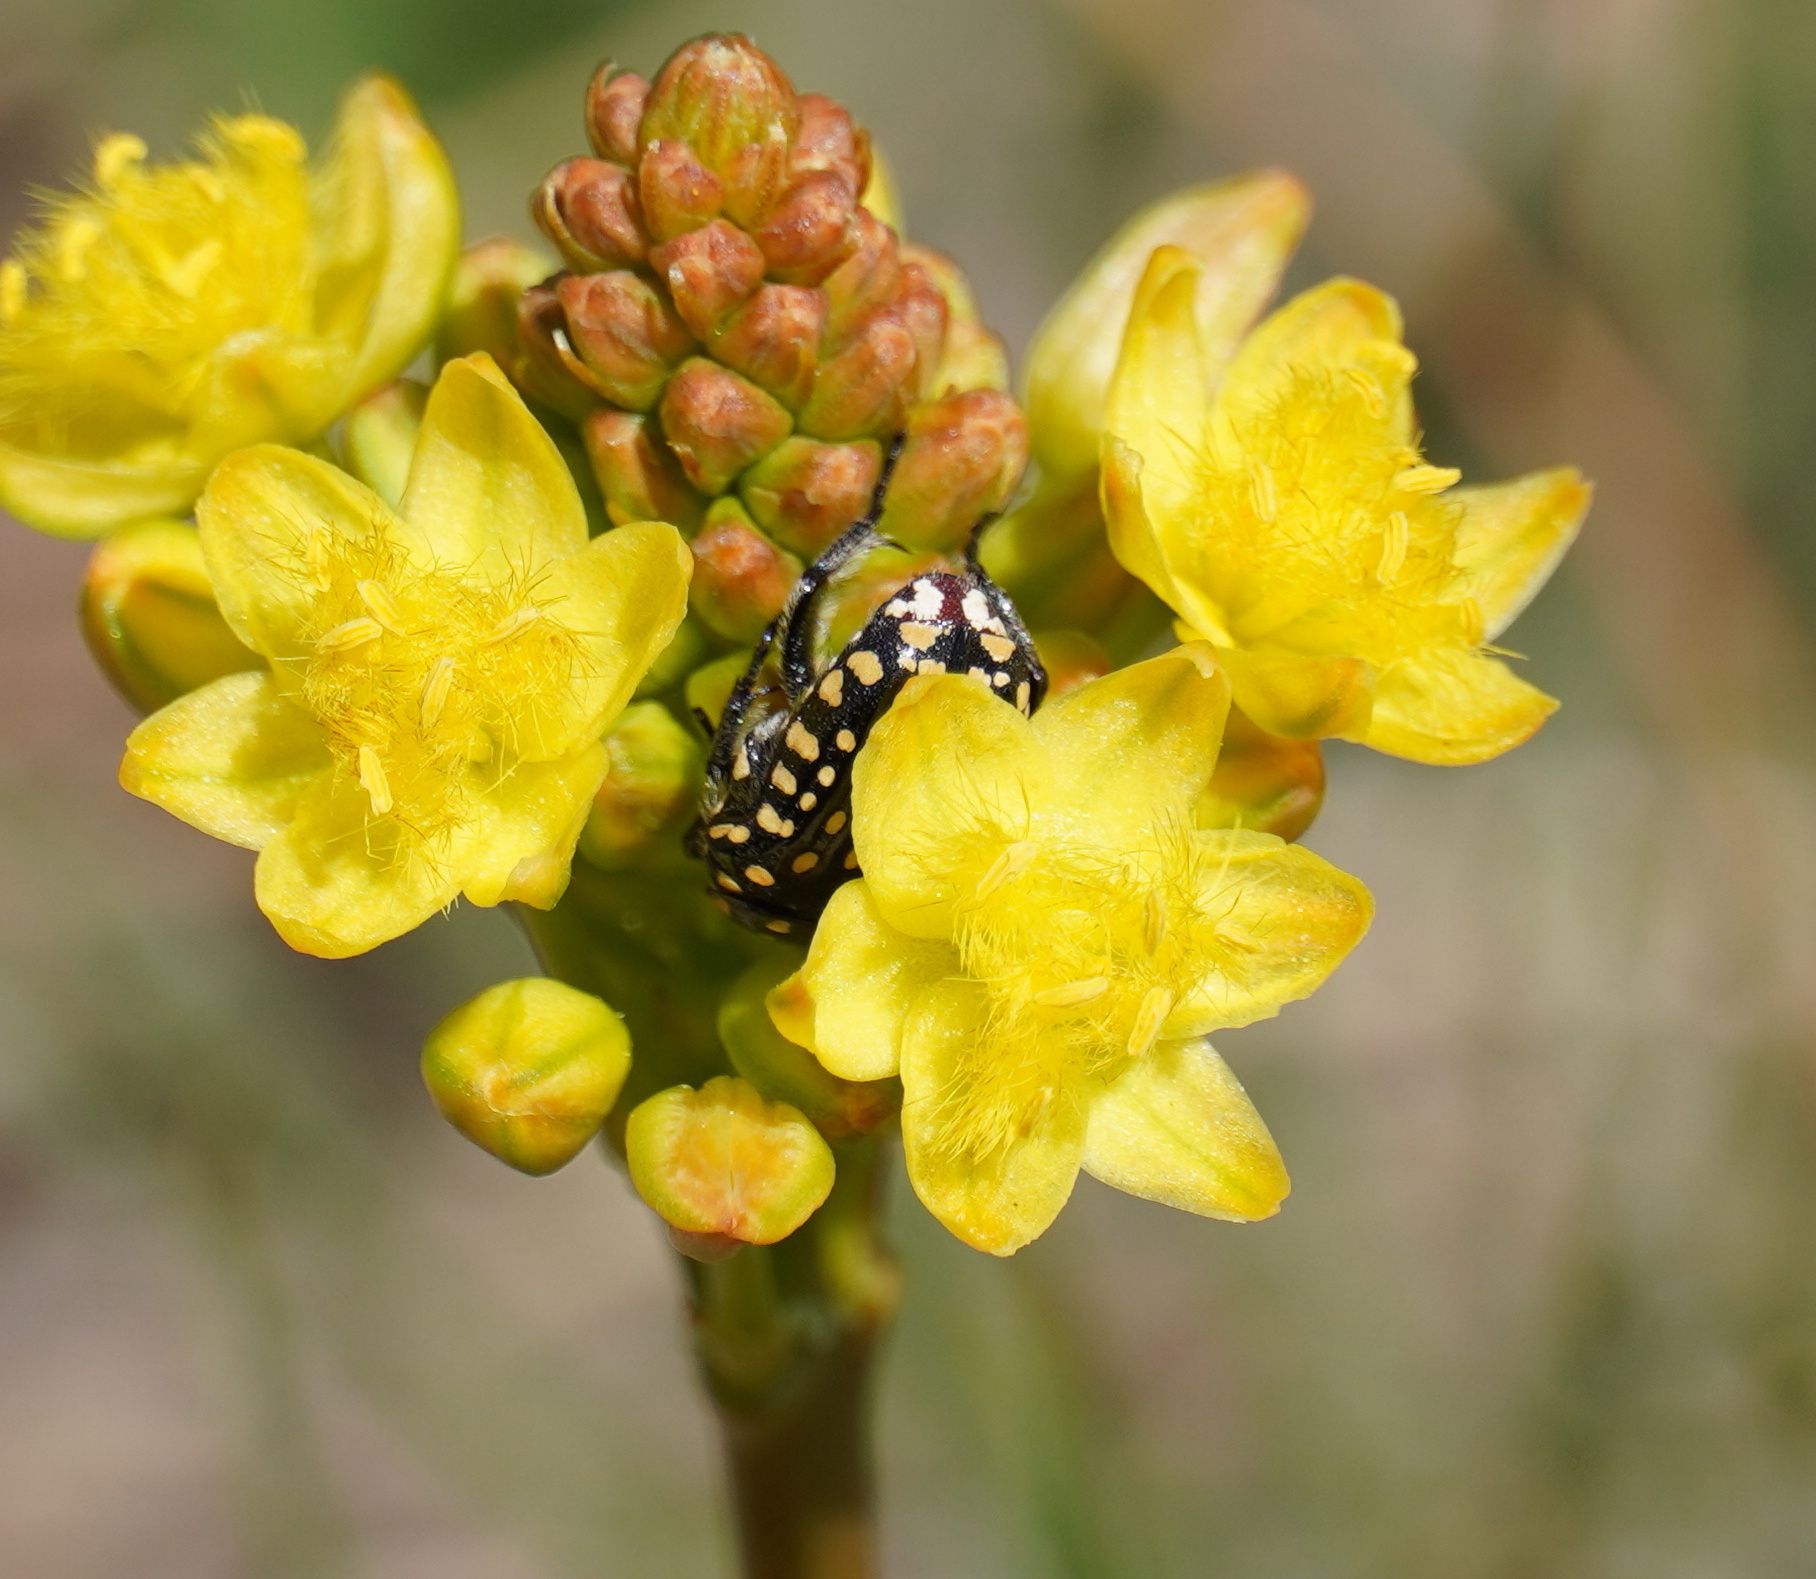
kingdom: Animalia
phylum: Arthropoda
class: Insecta
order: Coleoptera
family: Scarabaeidae
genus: Cyrtothyrea
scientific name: Cyrtothyrea testaceoguttata
